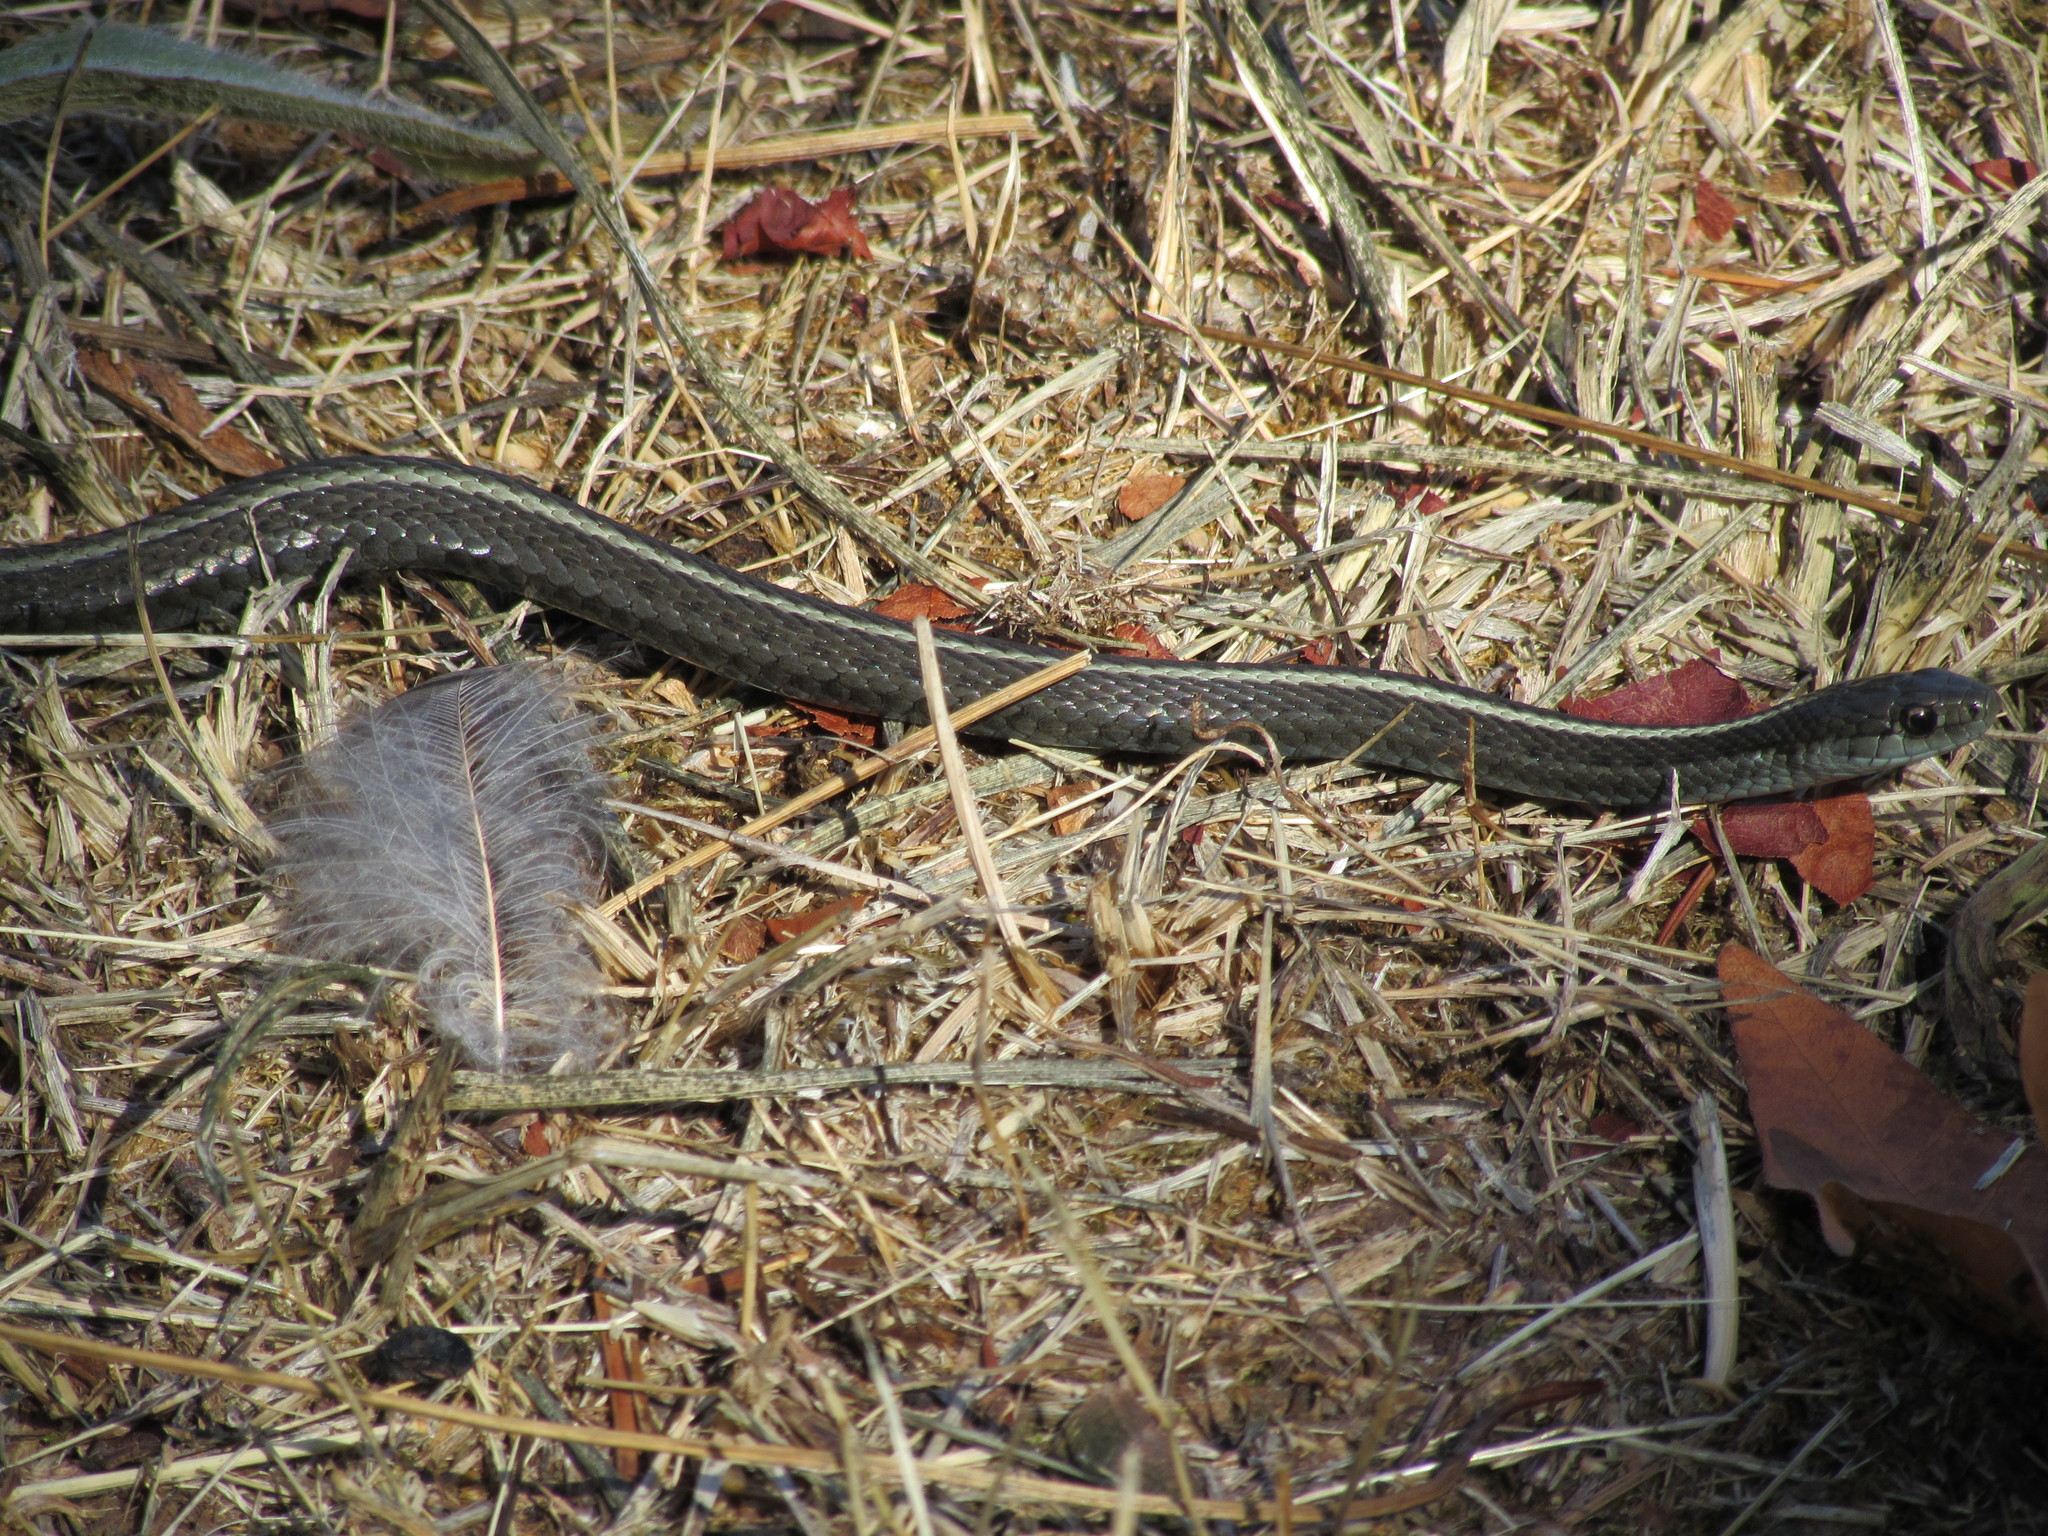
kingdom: Animalia
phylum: Chordata
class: Squamata
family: Colubridae
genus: Thamnophis
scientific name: Thamnophis ordinoides
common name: Northwestern garter snake
